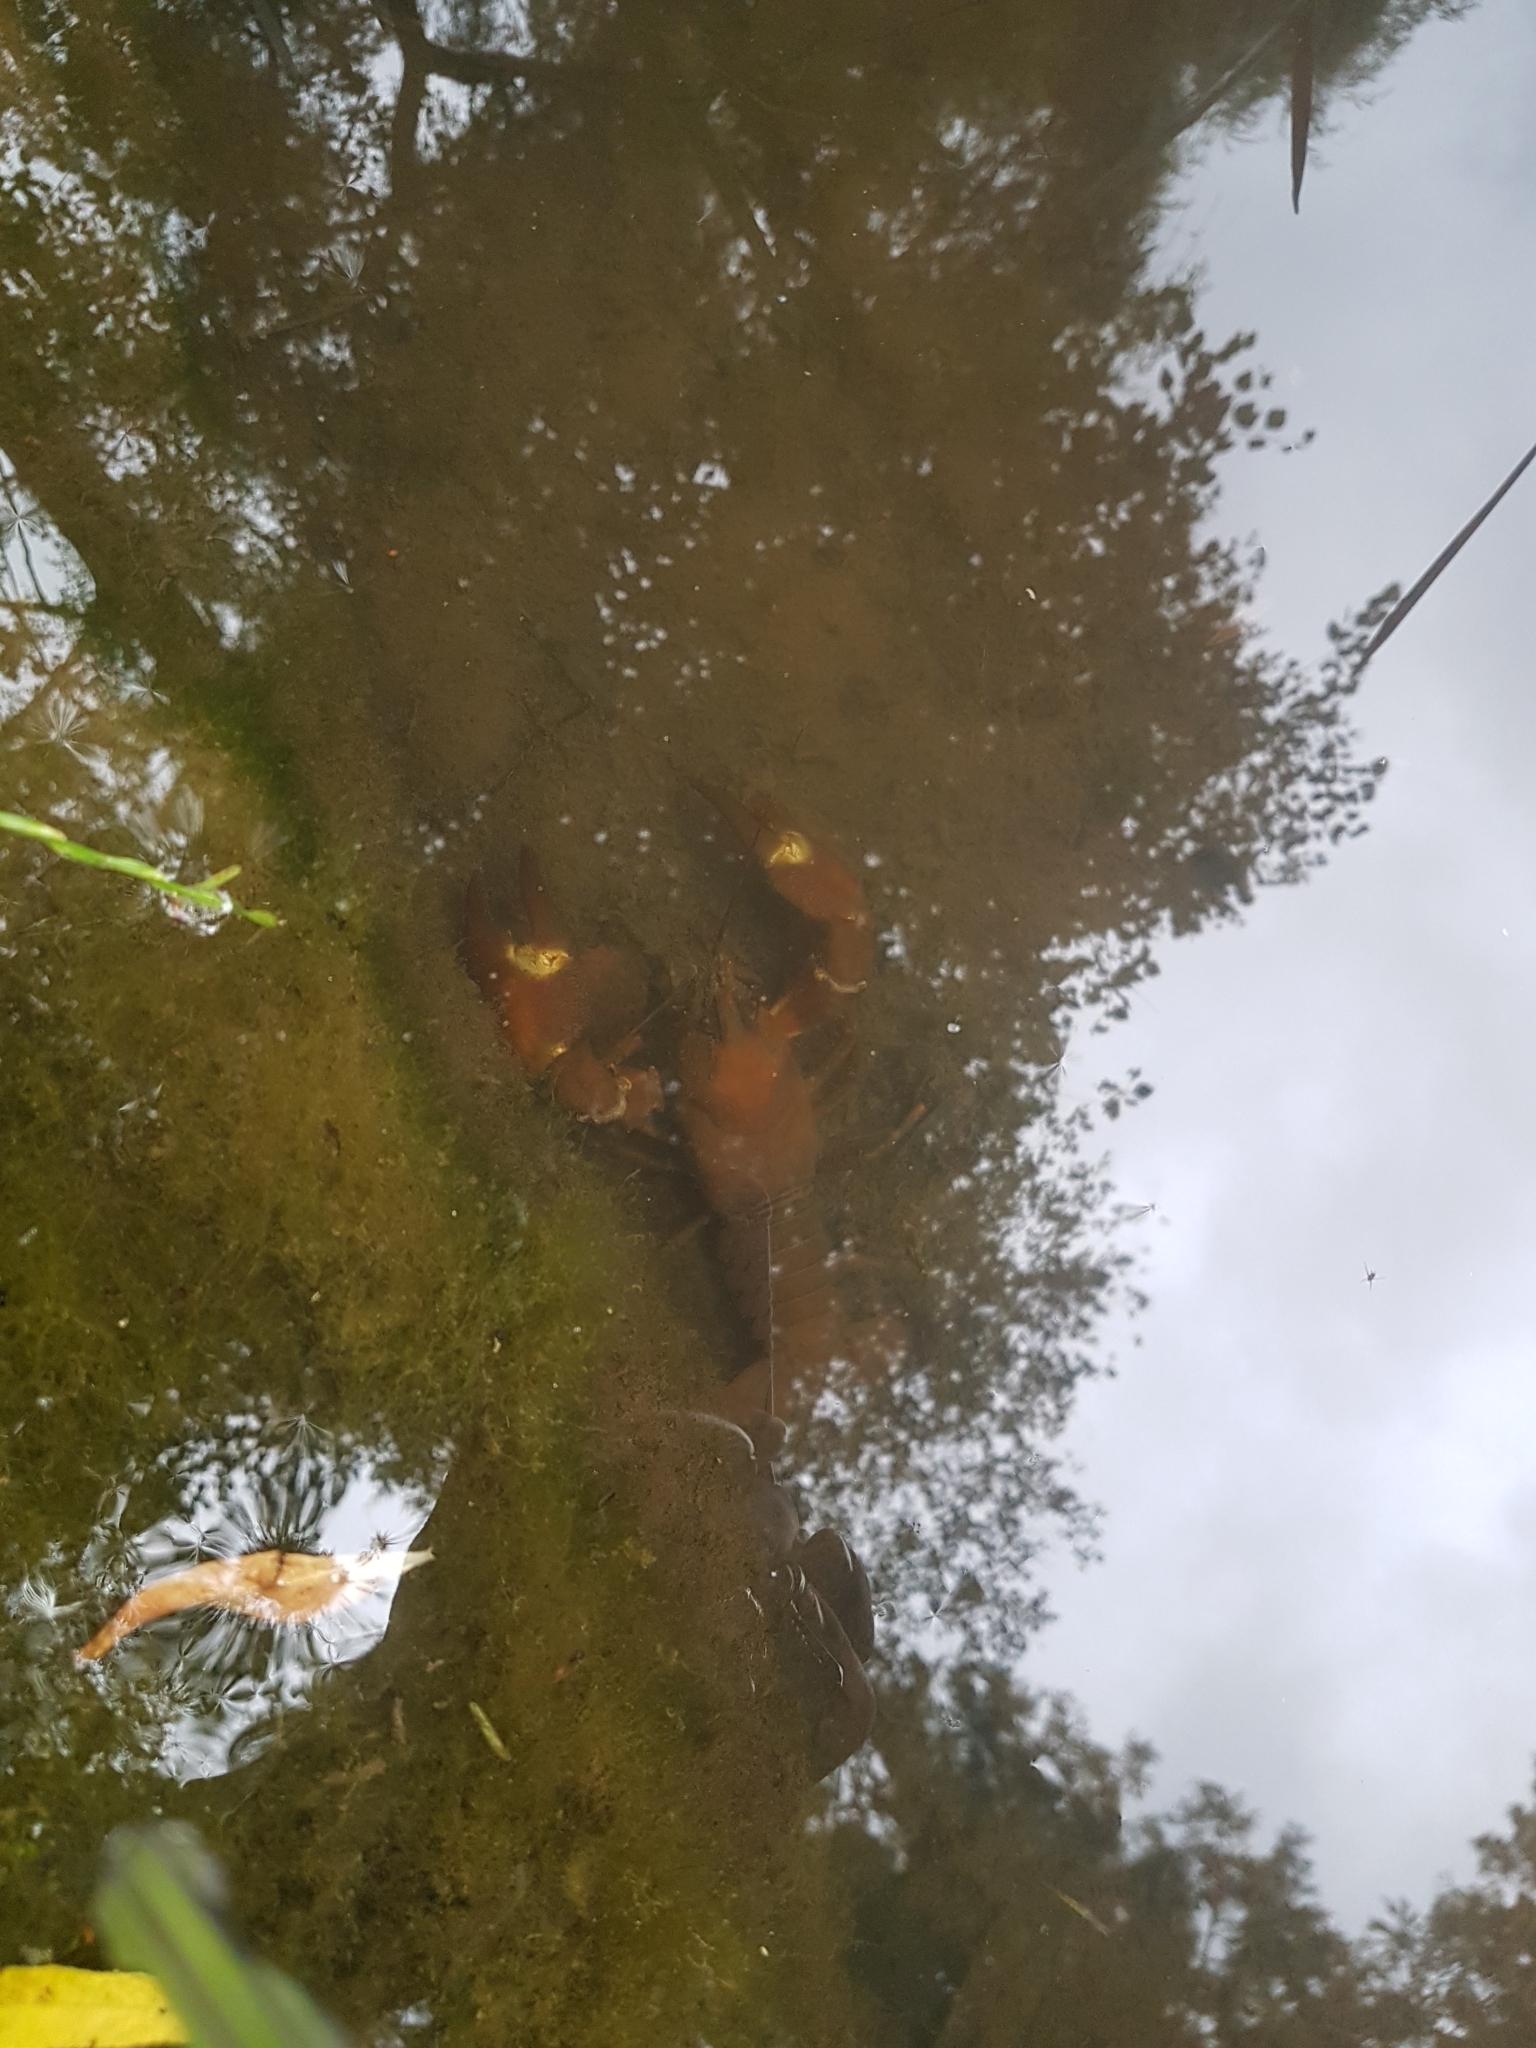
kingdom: Animalia
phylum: Arthropoda
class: Malacostraca
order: Decapoda
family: Astacidae
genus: Pacifastacus
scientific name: Pacifastacus leniusculus
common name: Signal crayfish
